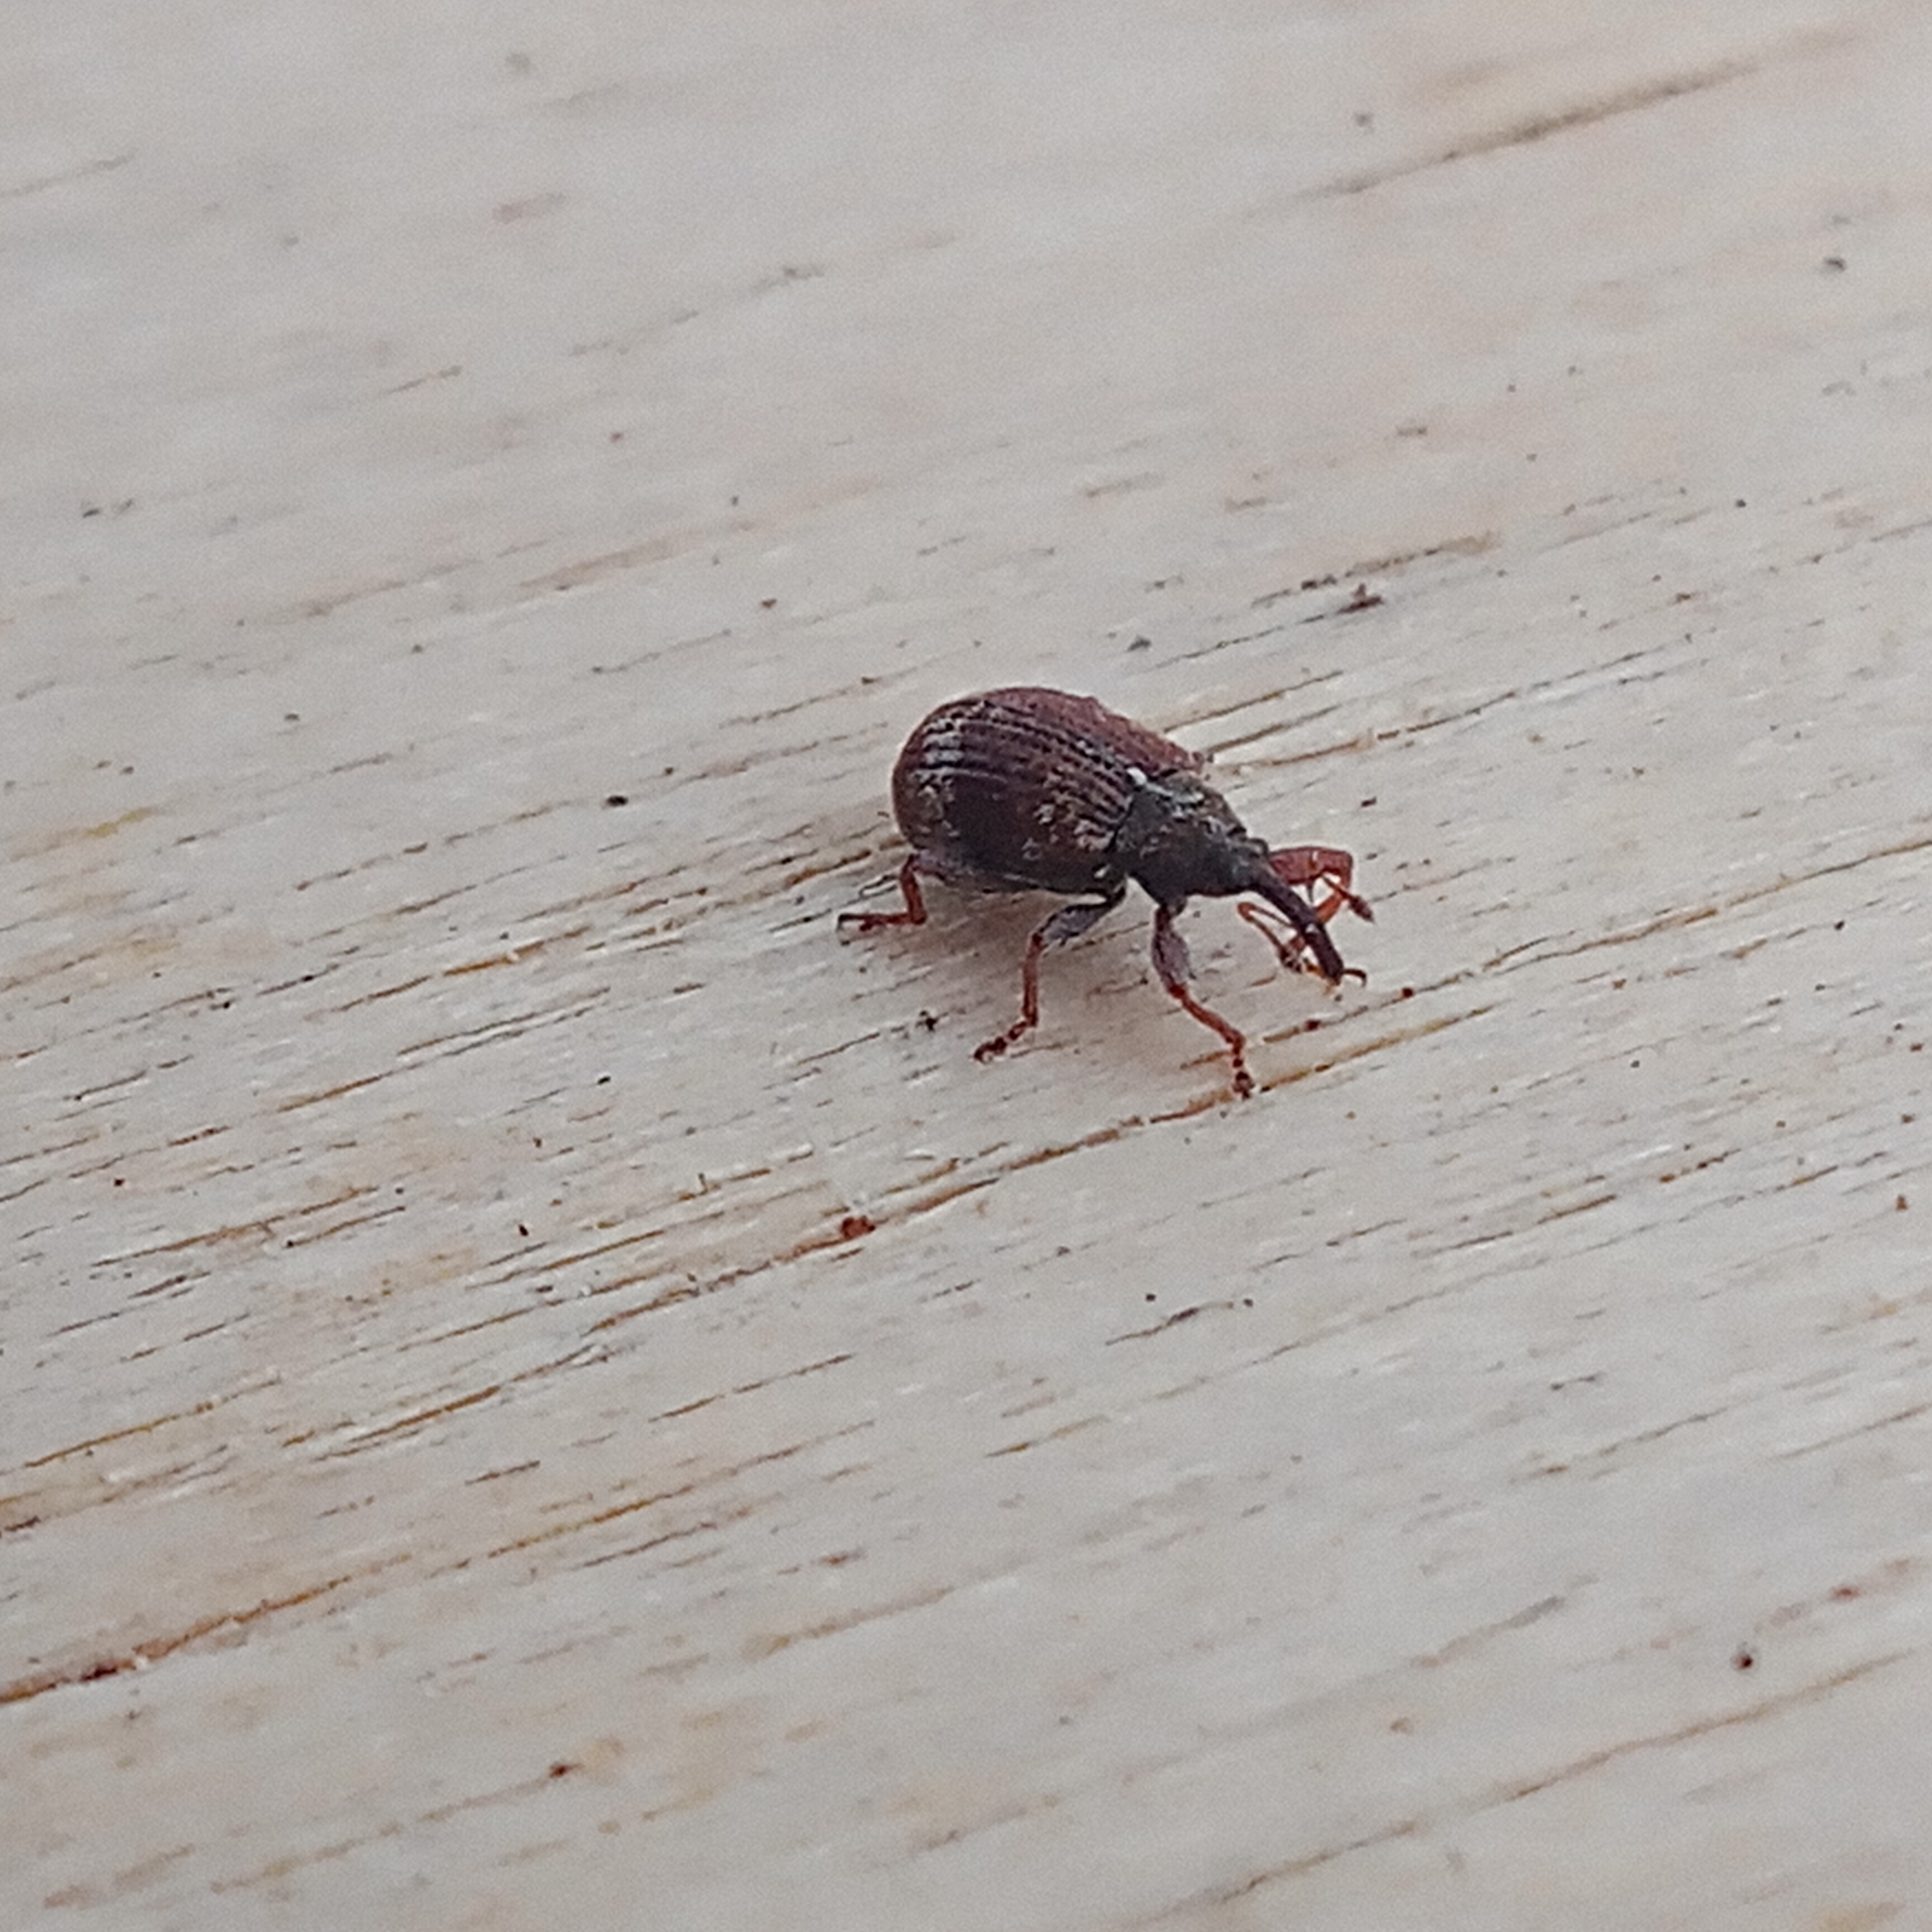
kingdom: Animalia
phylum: Arthropoda
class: Insecta
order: Coleoptera
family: Curculionidae
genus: Anthonomus
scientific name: Anthonomus conspersus
